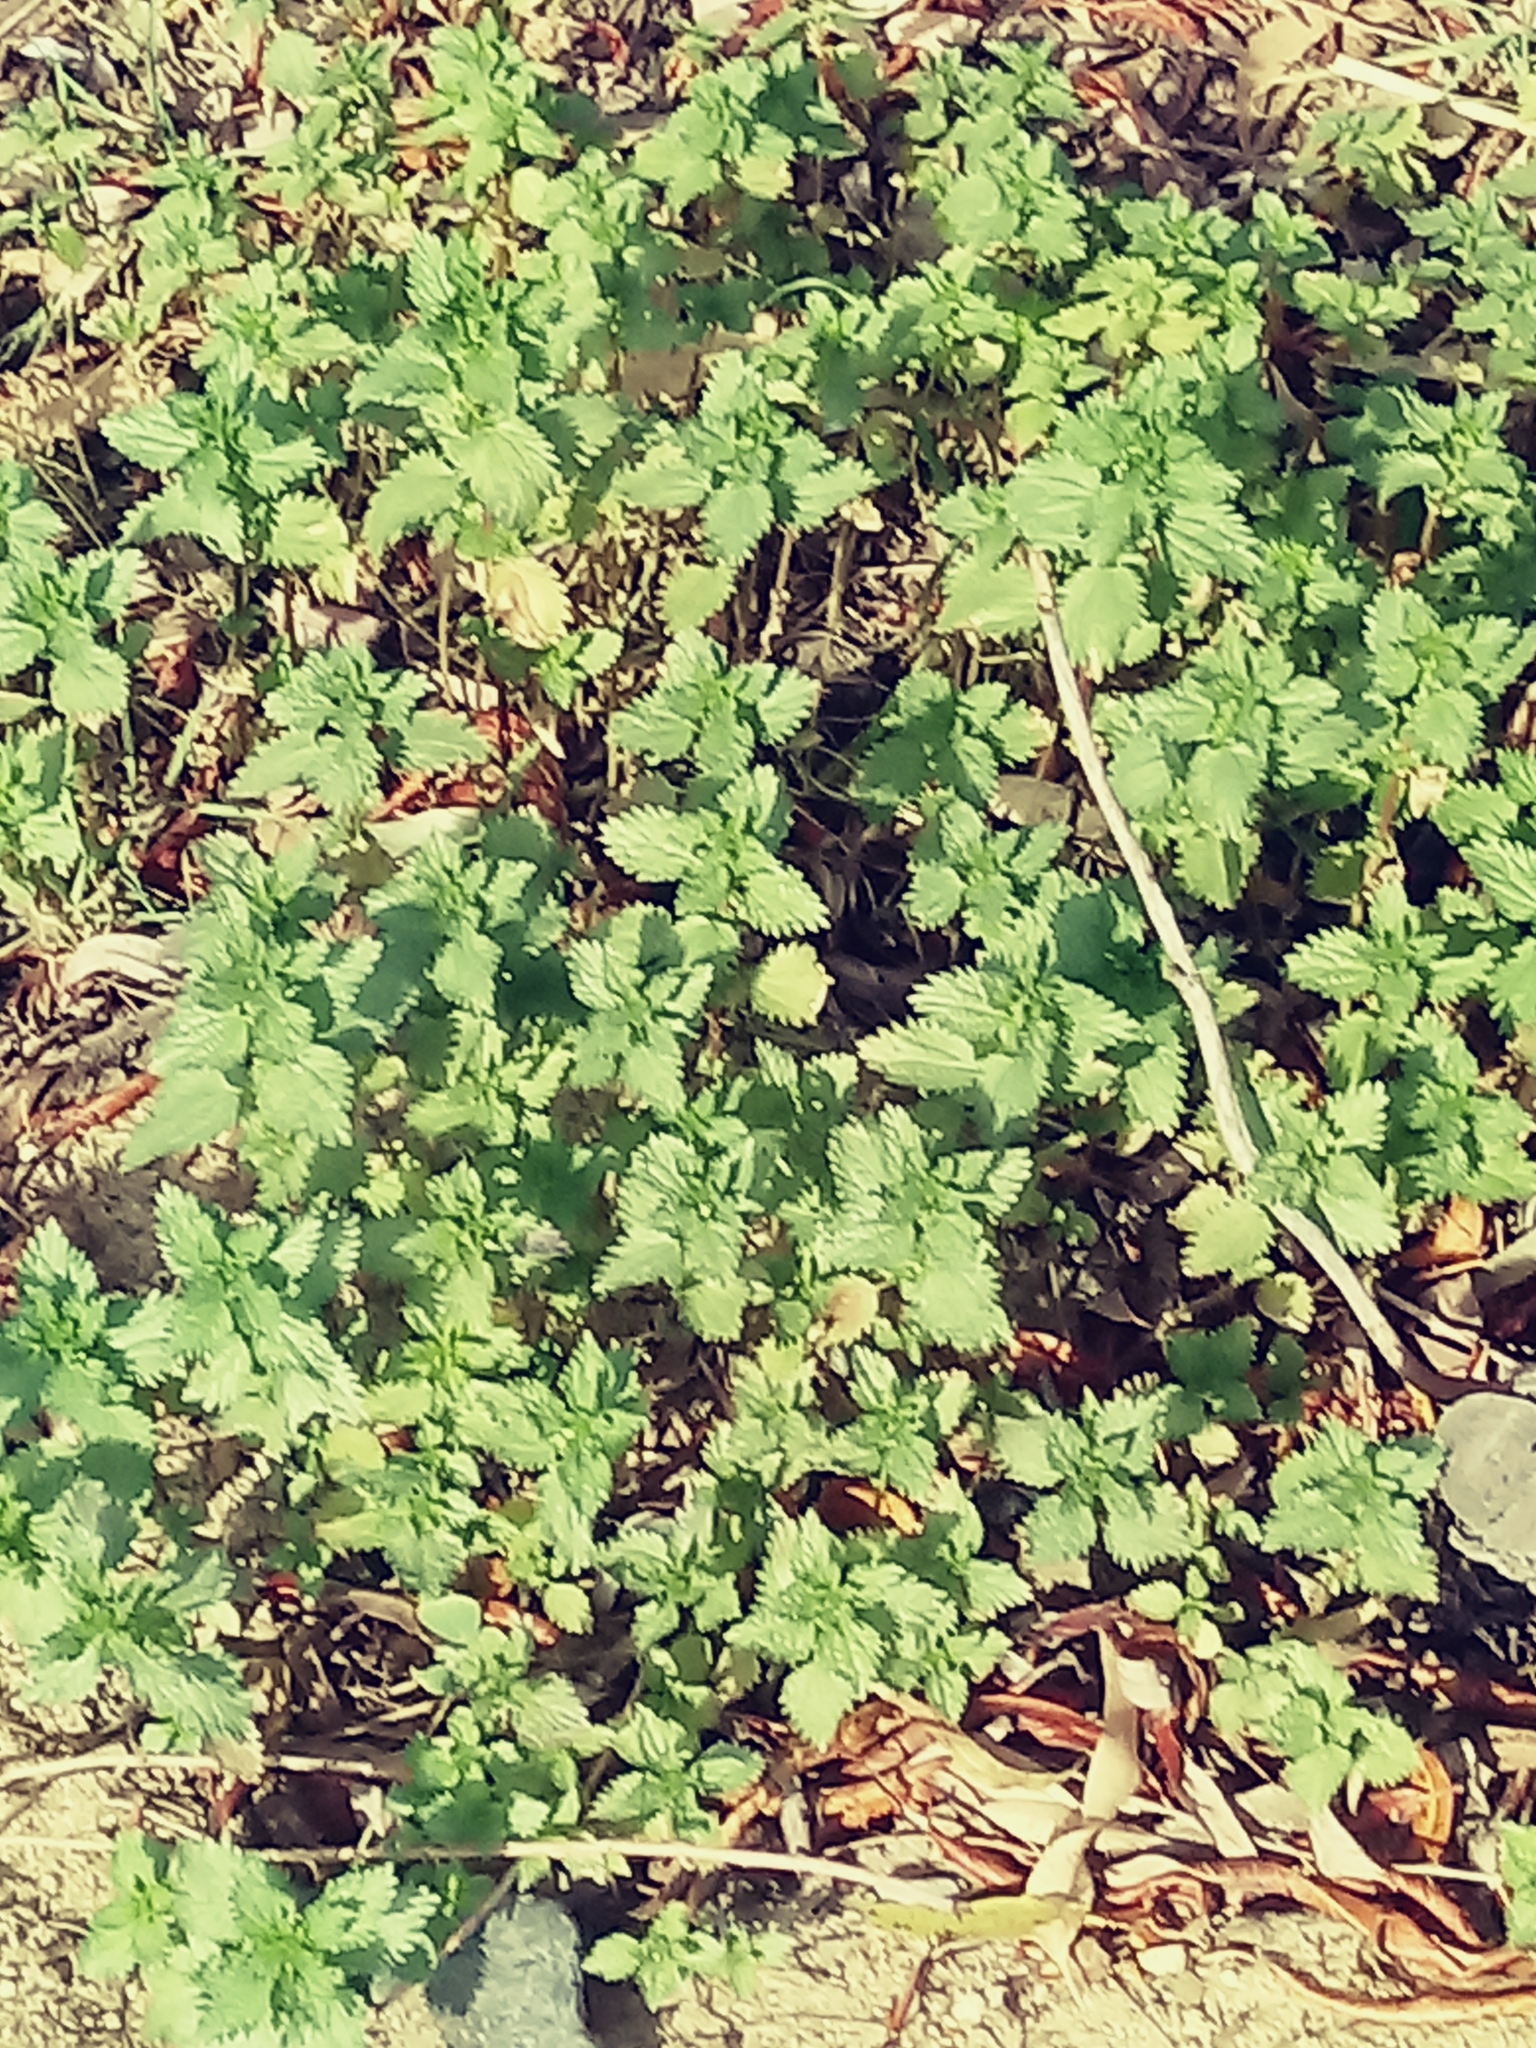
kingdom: Plantae
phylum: Tracheophyta
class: Magnoliopsida
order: Rosales
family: Urticaceae
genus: Urtica
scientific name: Urtica urens
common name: Dwarf nettle
